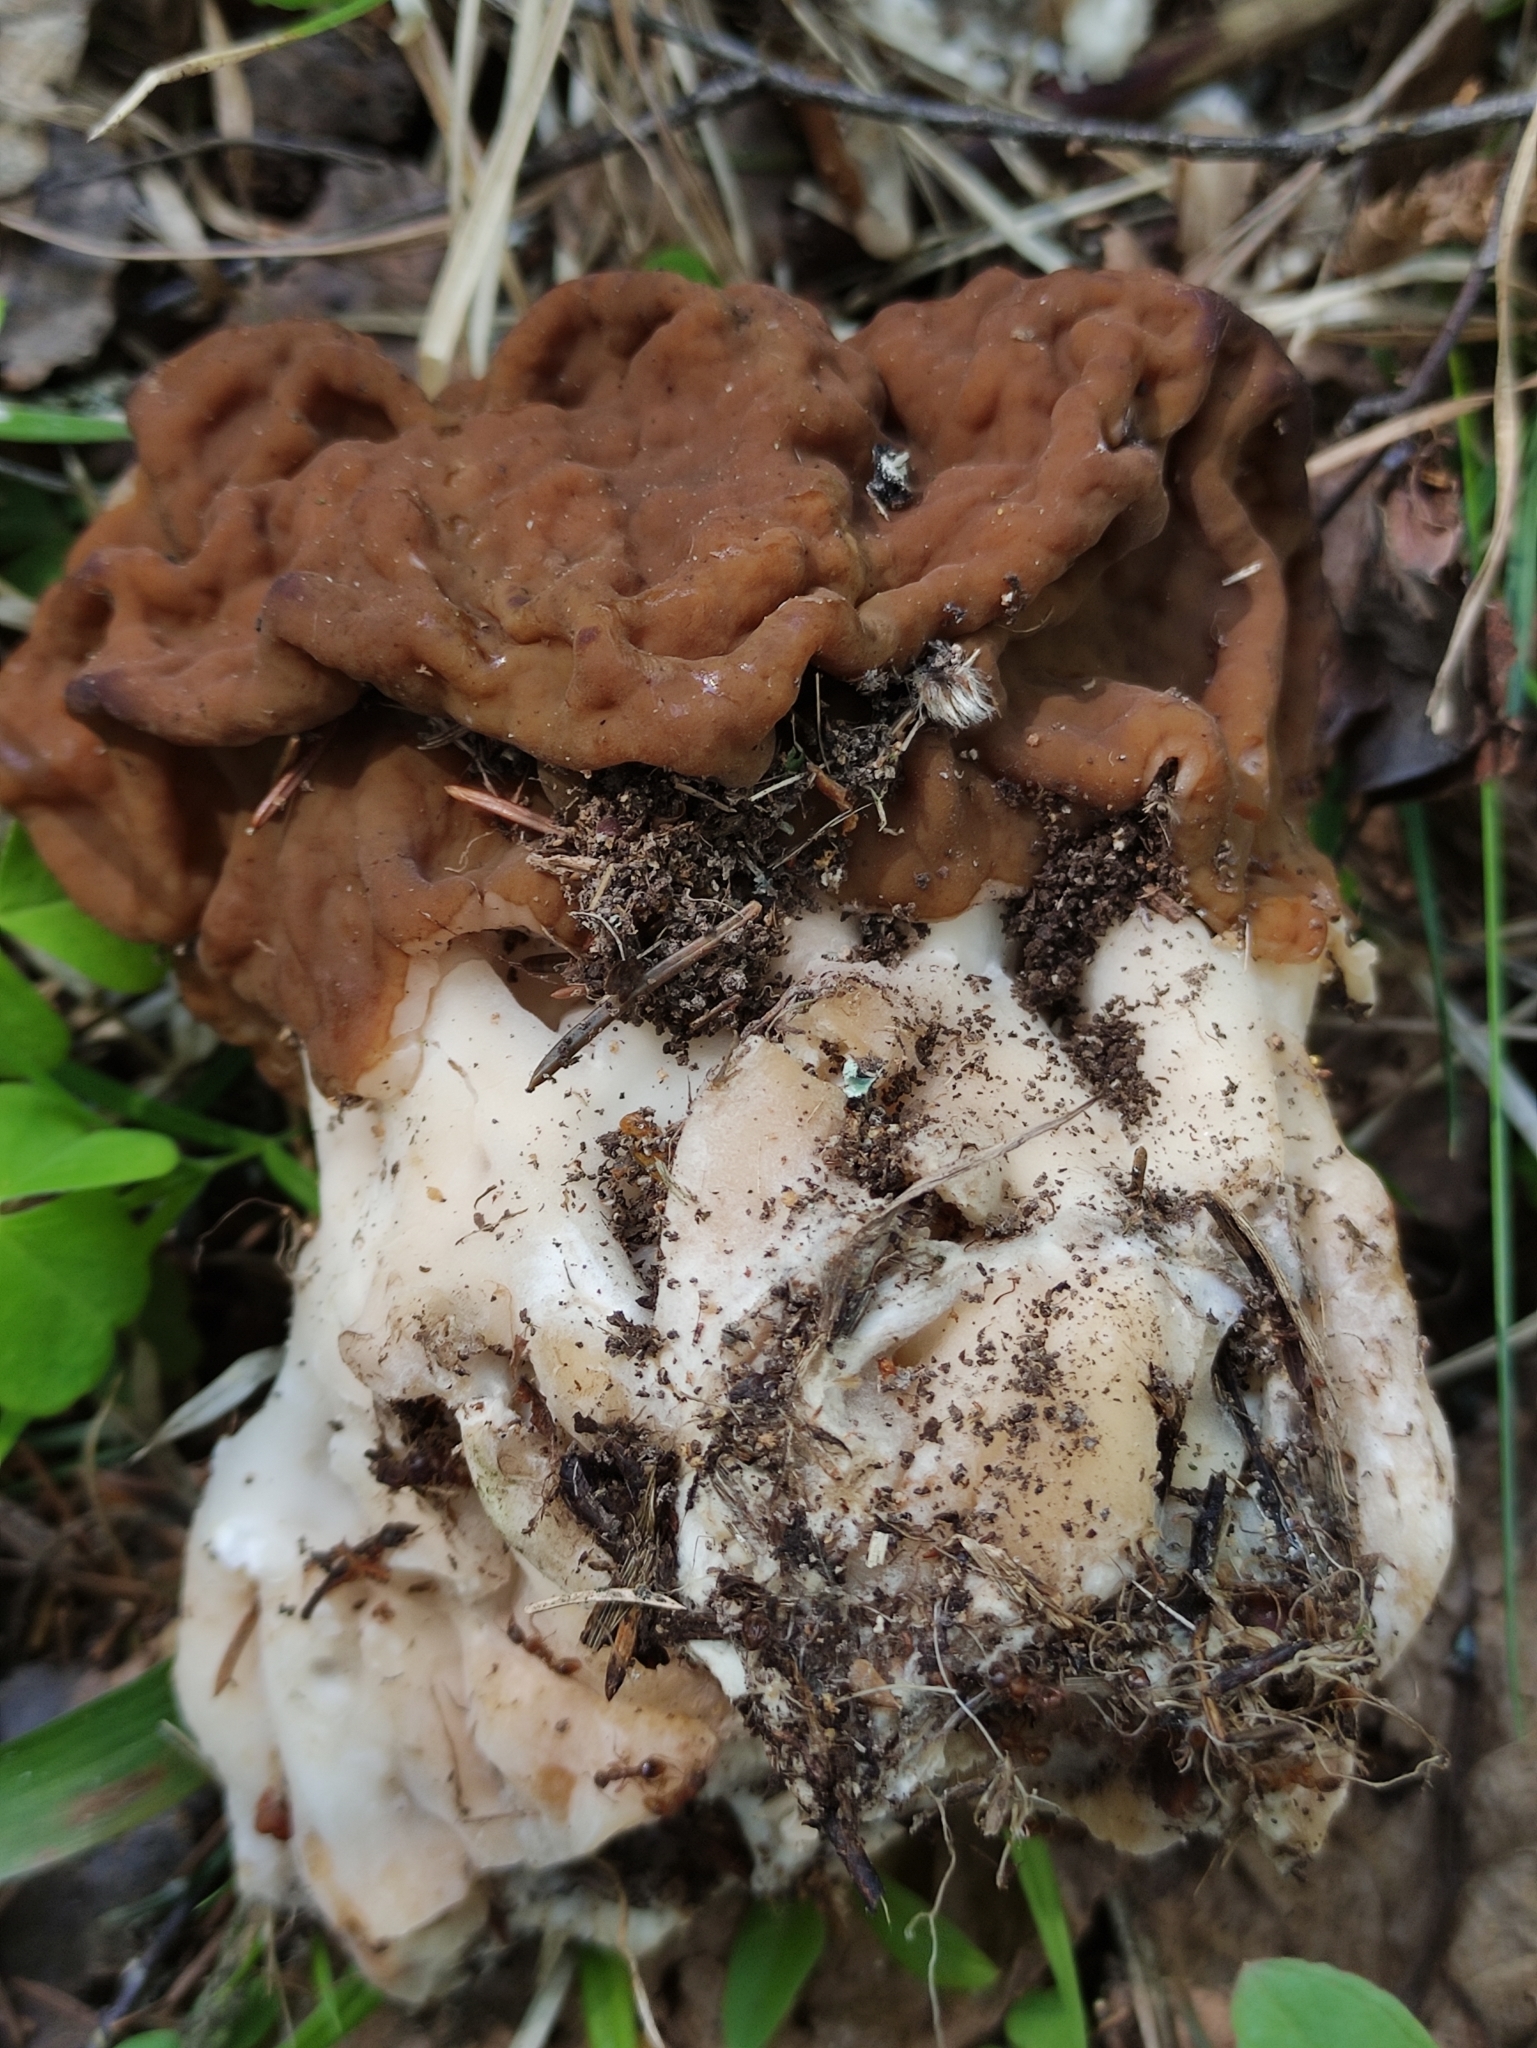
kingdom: Fungi
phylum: Ascomycota
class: Pezizomycetes
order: Pezizales
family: Discinaceae
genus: Gyromitra
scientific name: Gyromitra gigas
